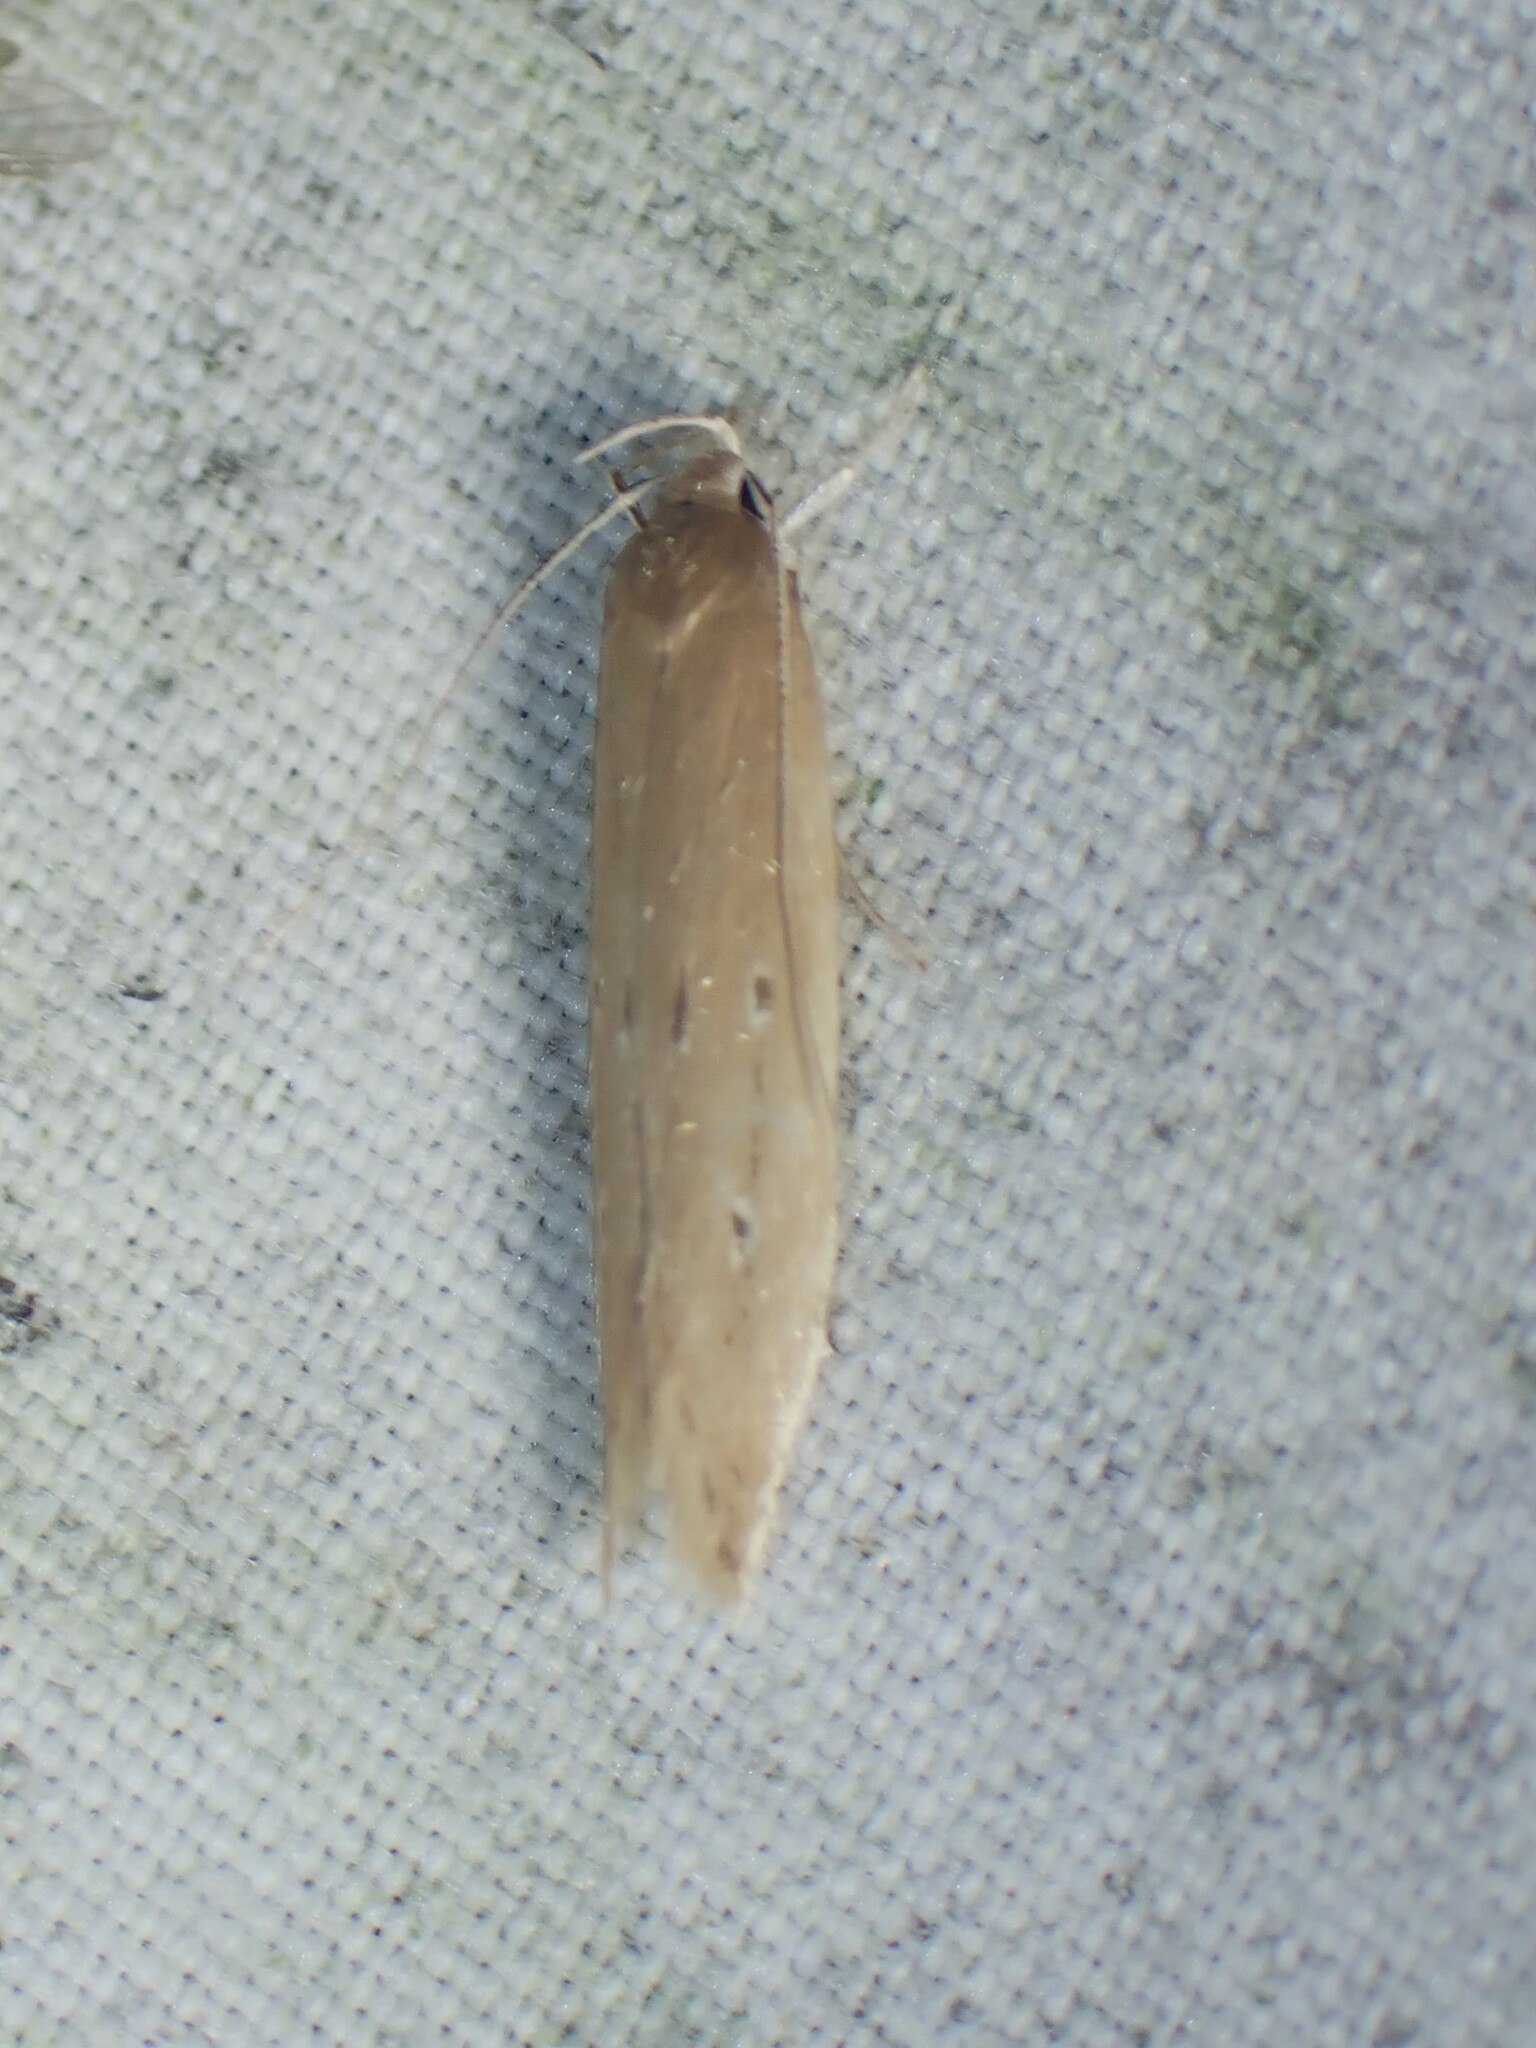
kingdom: Animalia
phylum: Arthropoda
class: Insecta
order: Lepidoptera
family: Cosmopterigidae
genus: Limnaecia
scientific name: Limnaecia phragmitella
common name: Bulrush cosmet
